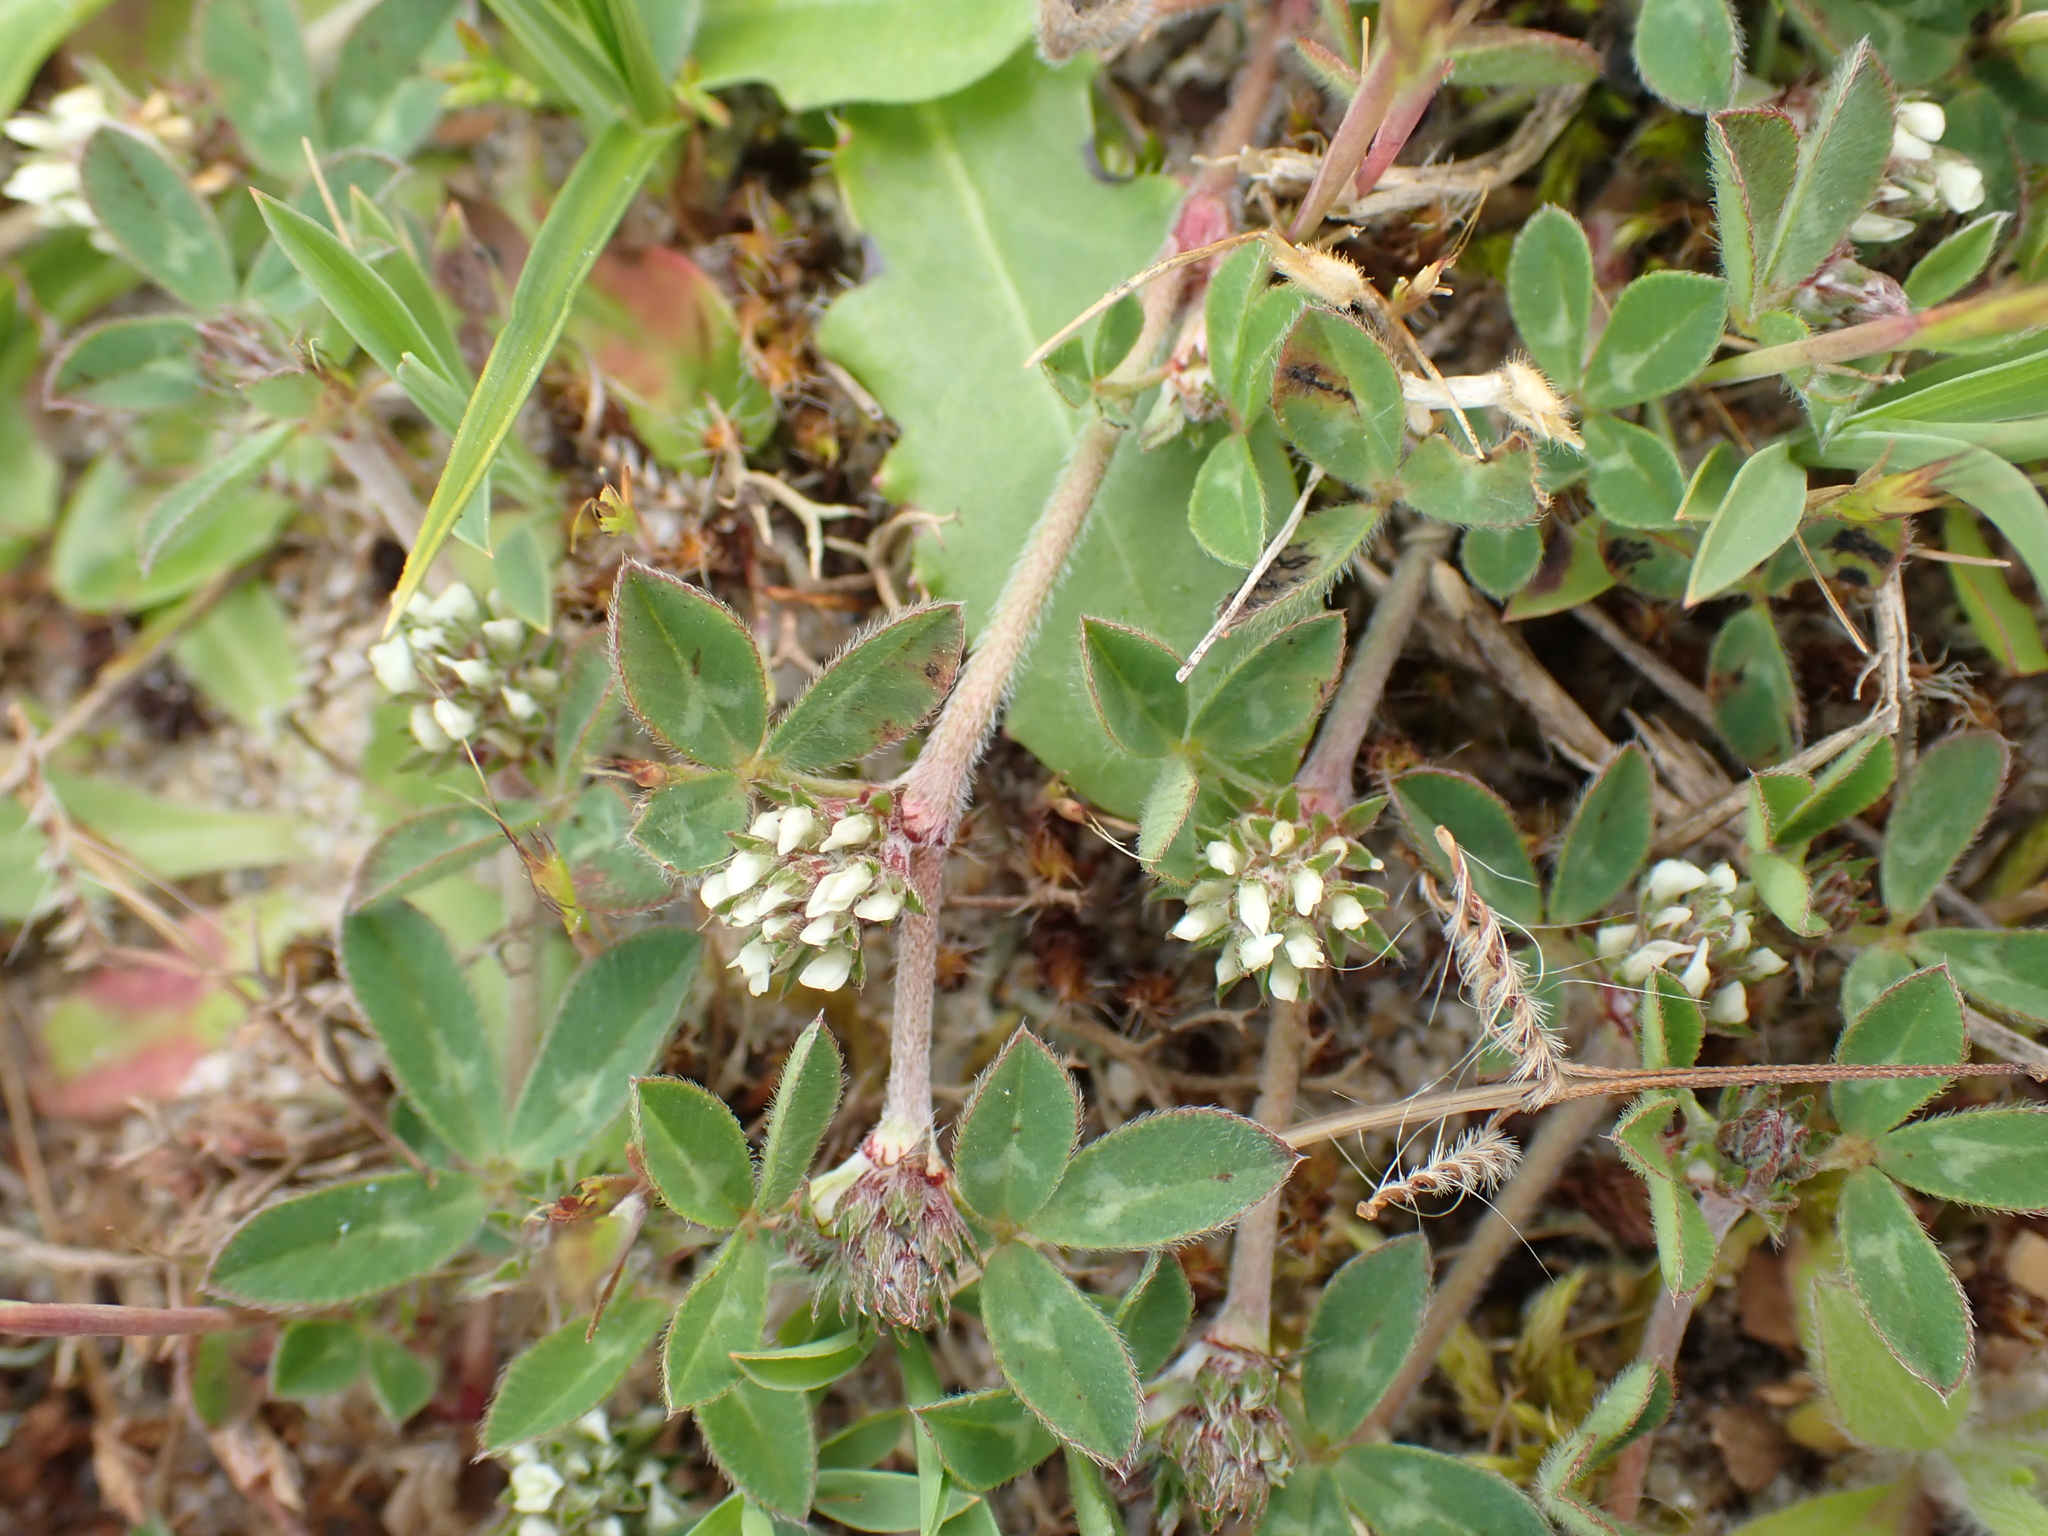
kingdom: Plantae
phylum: Tracheophyta
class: Magnoliopsida
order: Fabales
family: Fabaceae
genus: Trifolium
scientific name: Trifolium scabrum
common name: Rough clover
